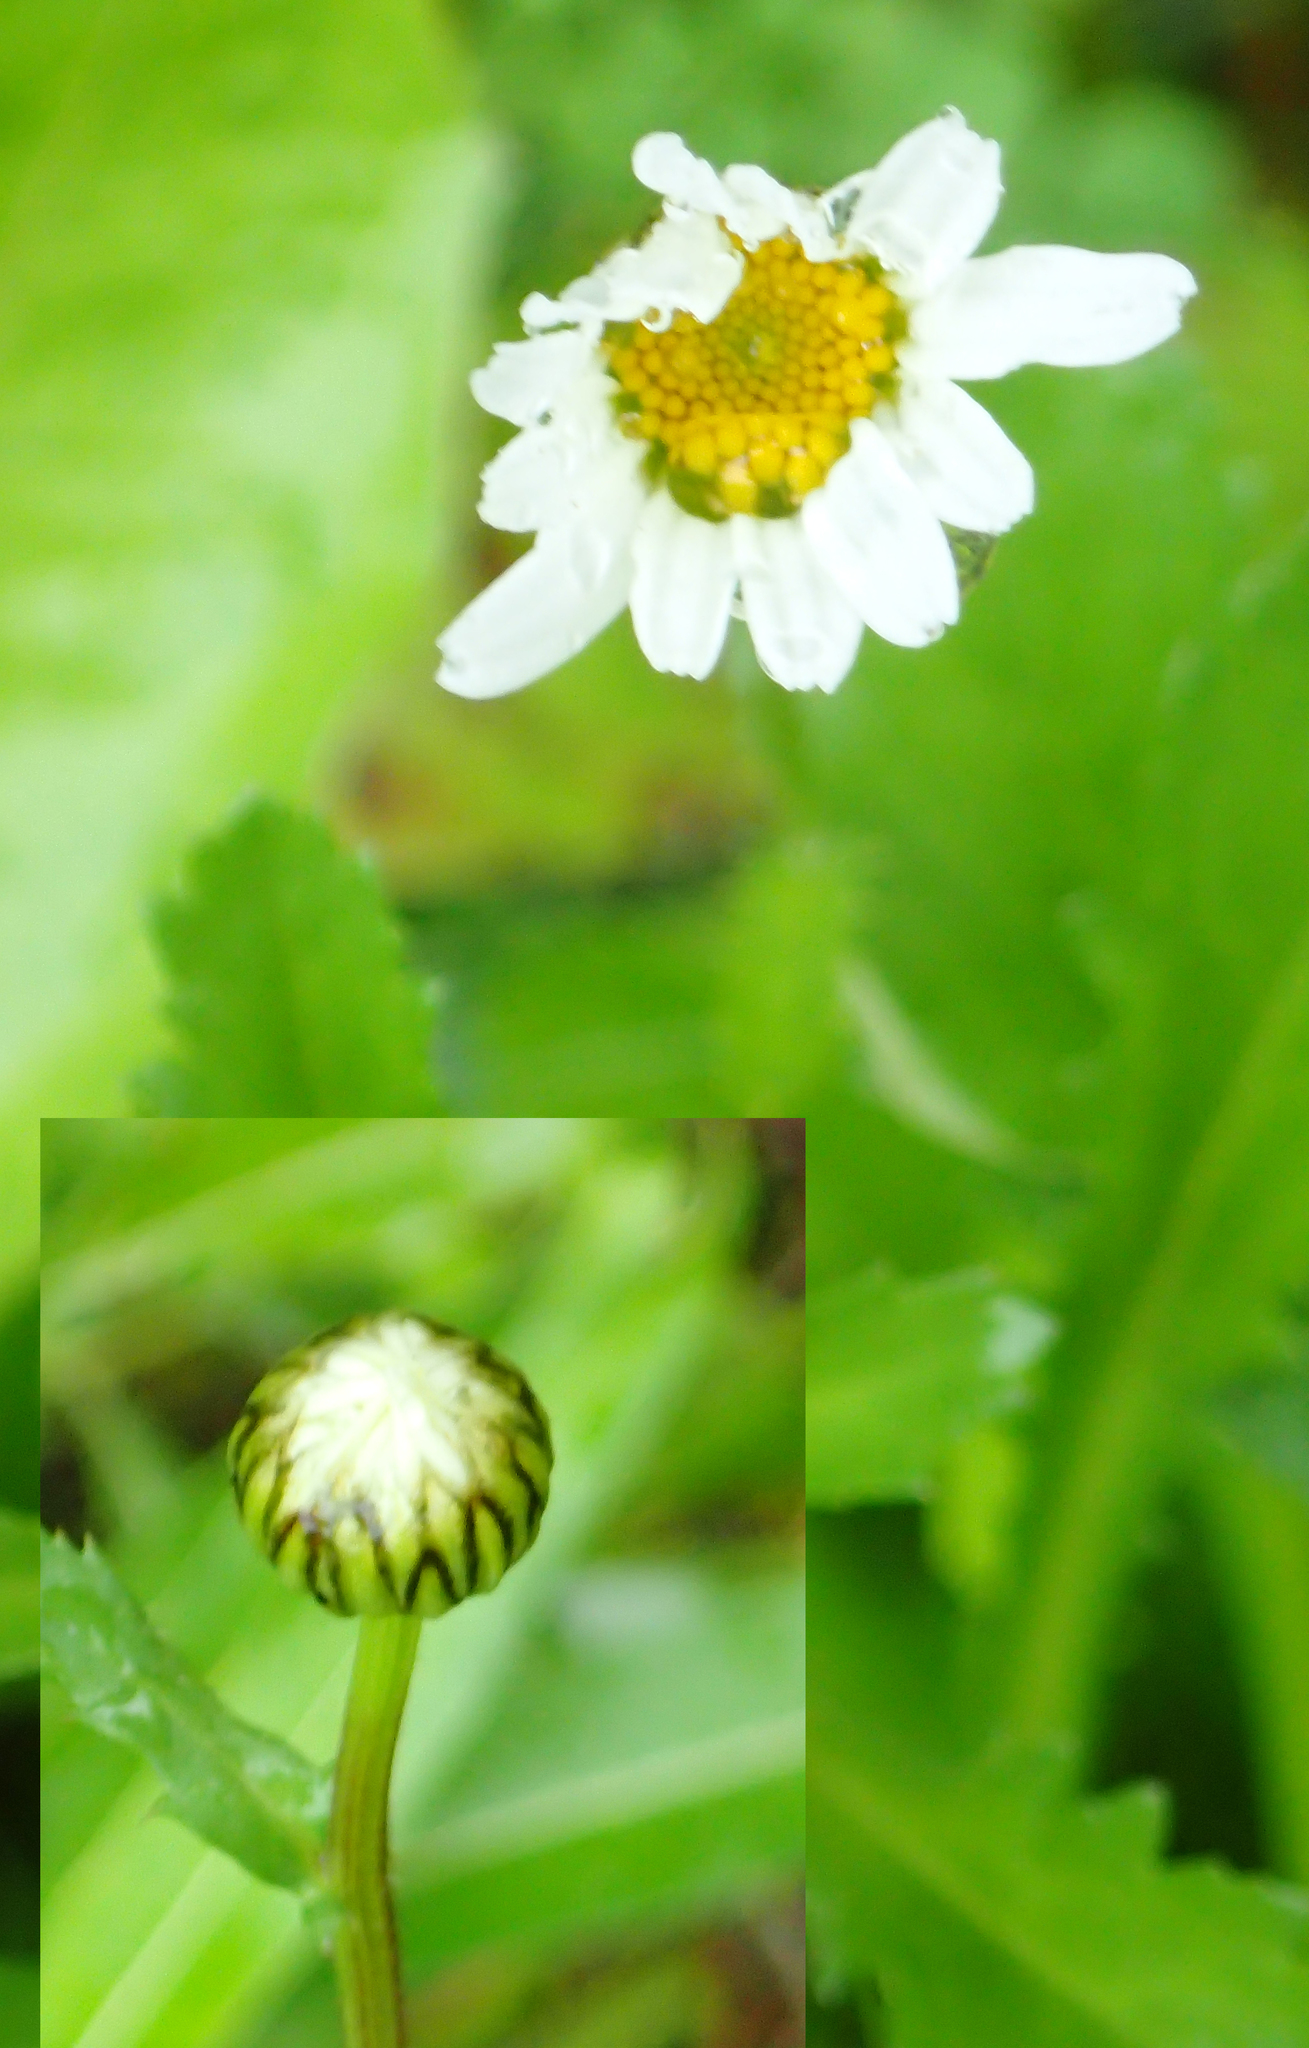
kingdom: Plantae
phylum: Tracheophyta
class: Magnoliopsida
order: Asterales
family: Asteraceae
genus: Leucanthemum
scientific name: Leucanthemum vulgare
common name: Oxeye daisy
